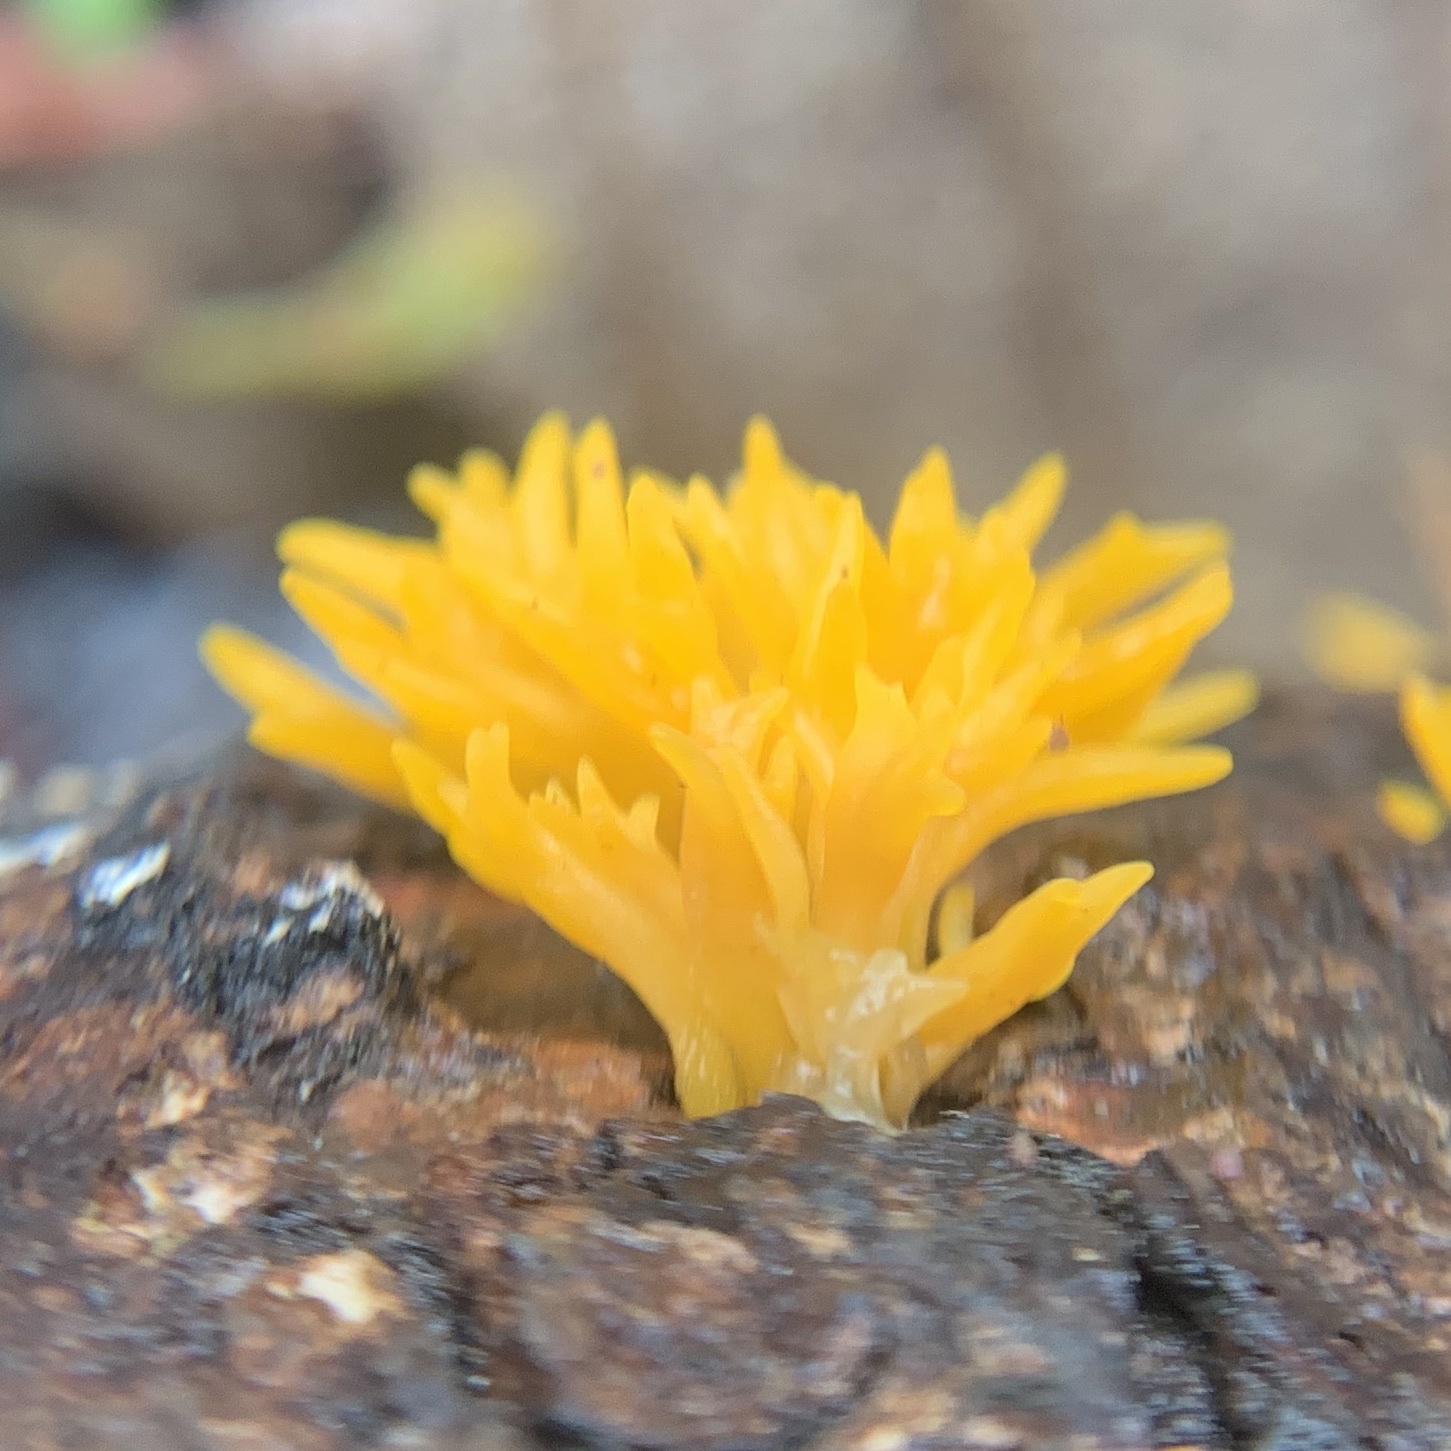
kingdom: Fungi
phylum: Basidiomycota
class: Dacrymycetes
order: Dacrymycetales
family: Dacrymycetaceae
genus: Calocera
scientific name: Calocera cornea
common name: Small stagshorn
